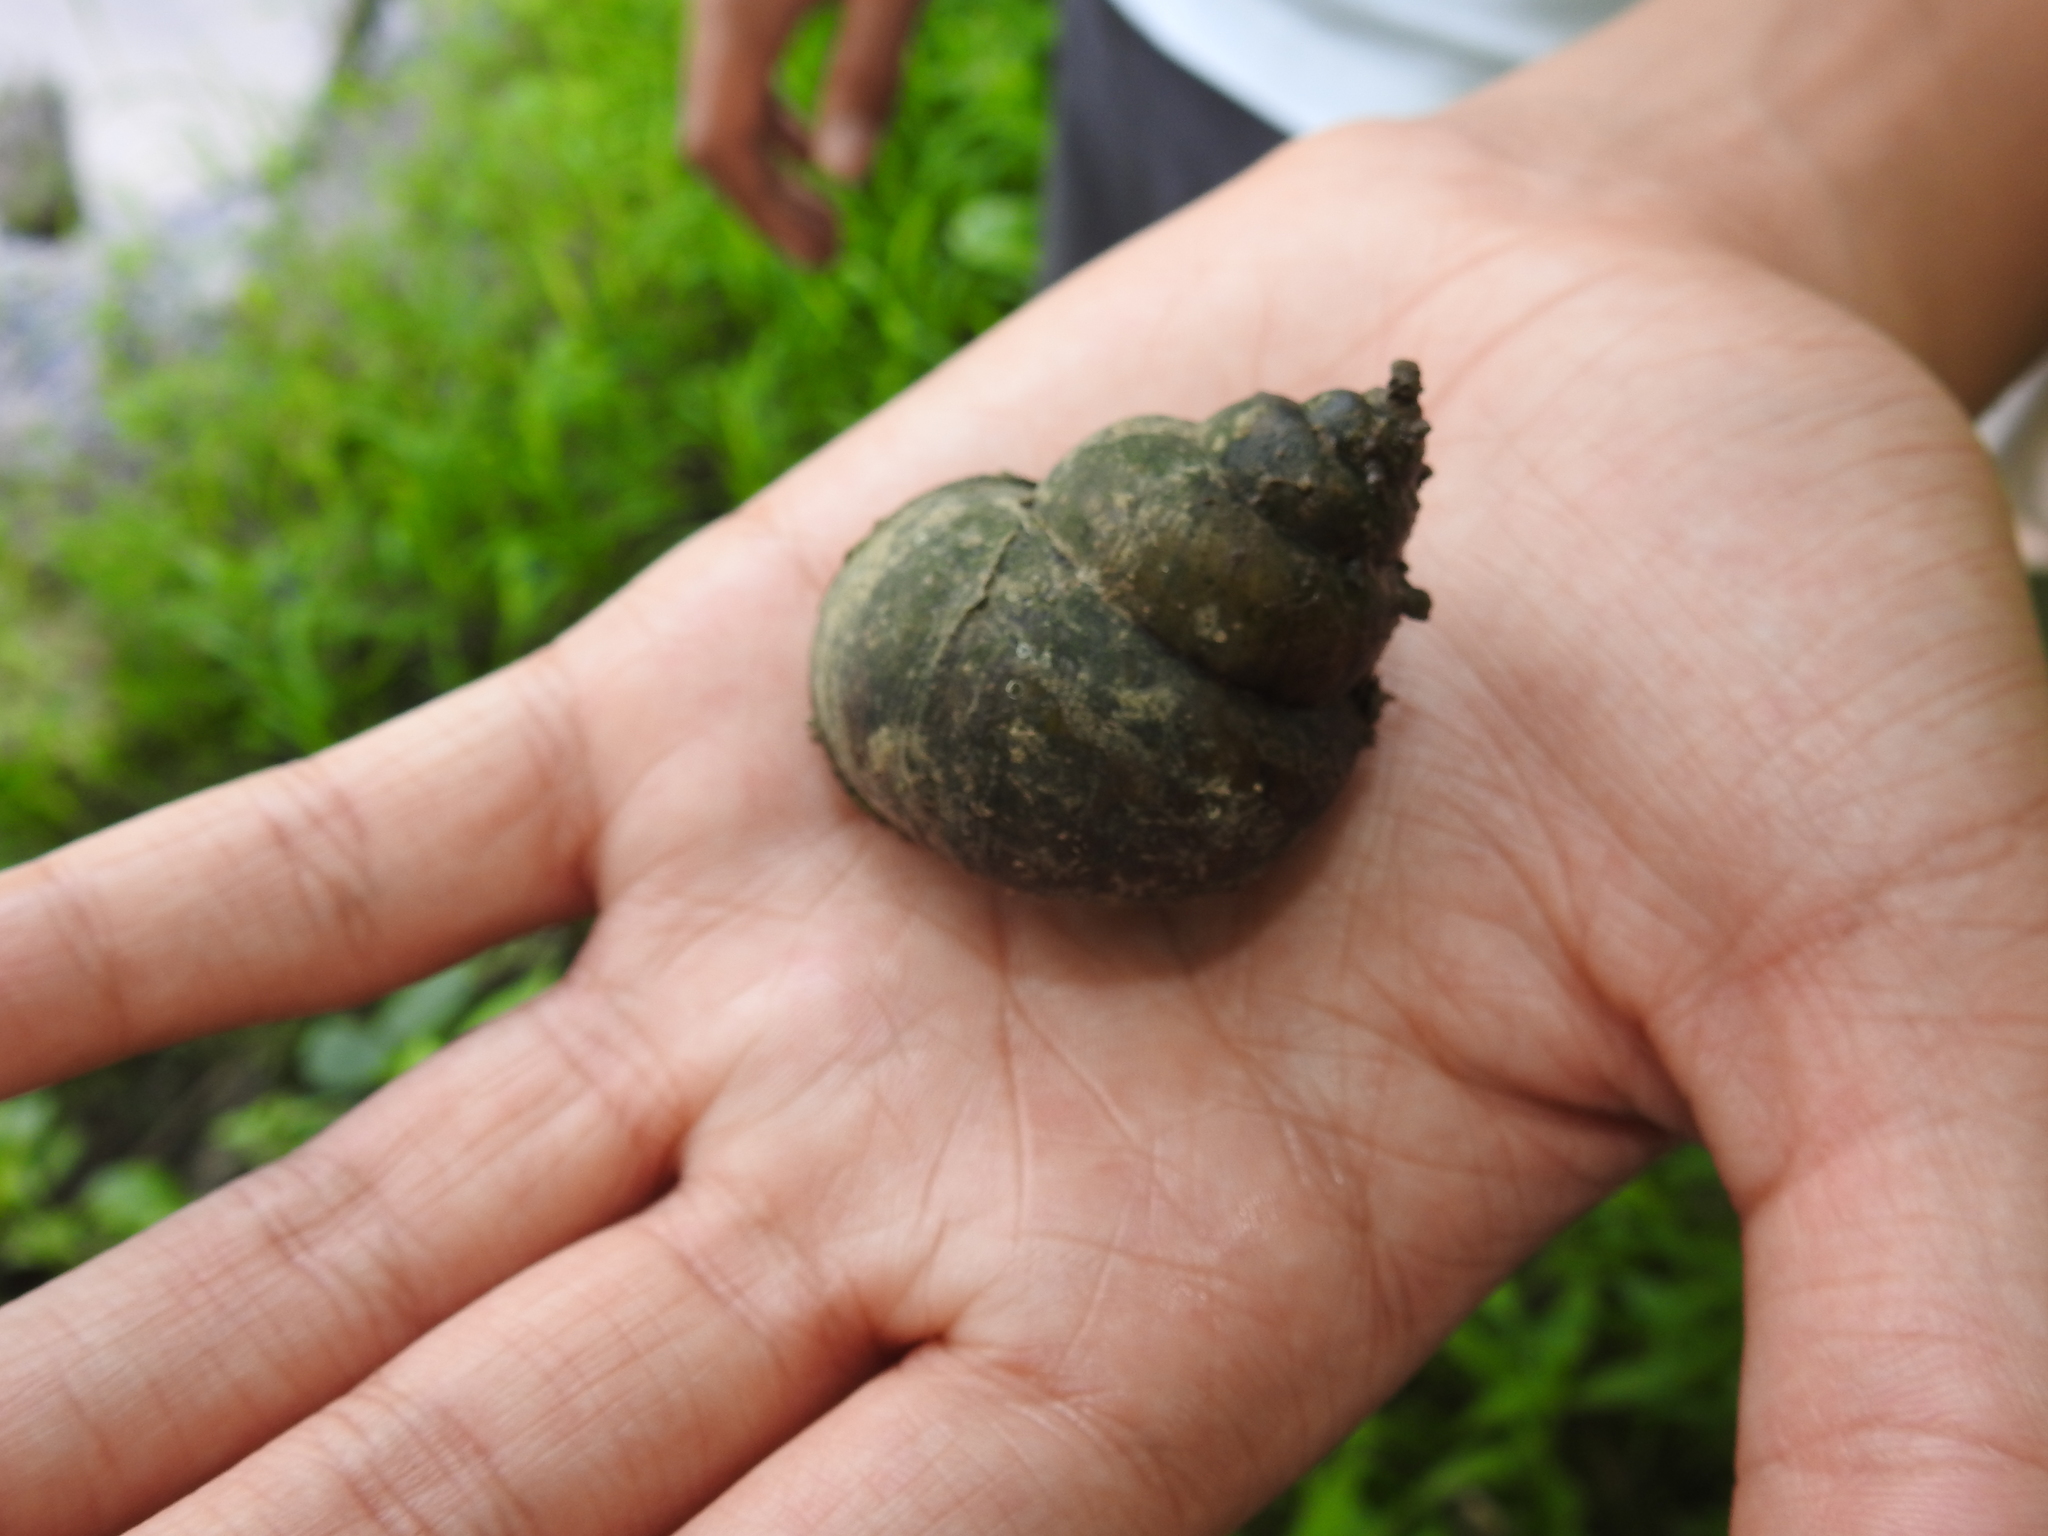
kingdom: Animalia
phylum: Mollusca
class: Gastropoda
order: Architaenioglossa
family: Viviparidae
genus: Cipangopaludina
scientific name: Cipangopaludina chinensis
